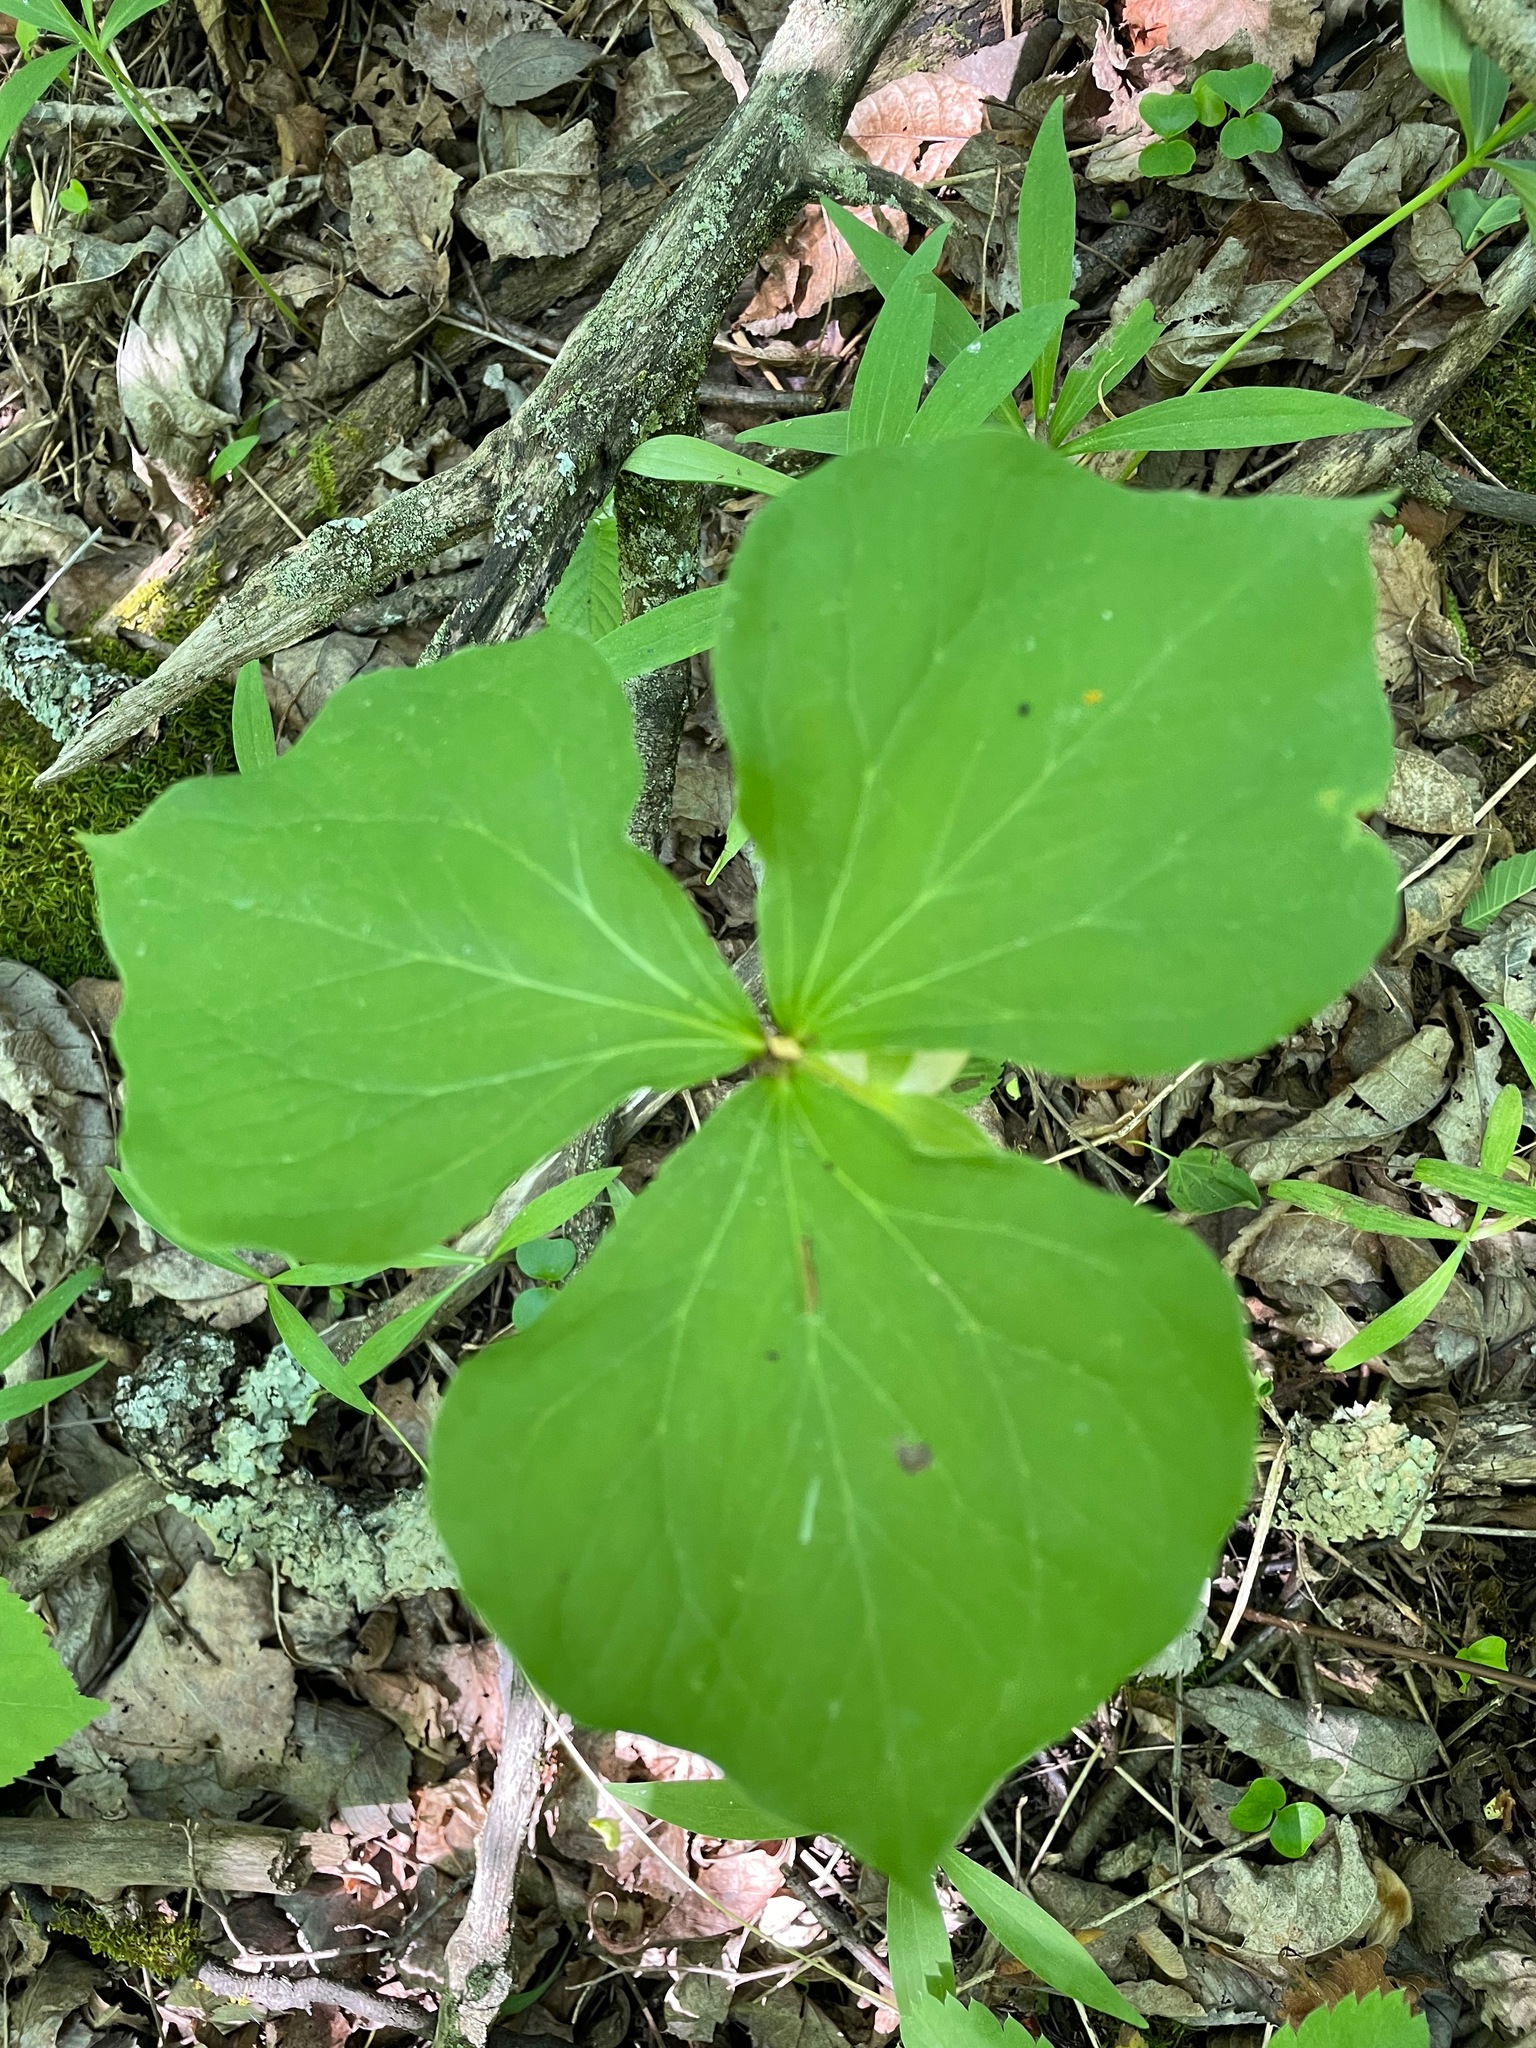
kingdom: Plantae
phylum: Tracheophyta
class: Liliopsida
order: Liliales
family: Melanthiaceae
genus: Trillium
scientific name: Trillium cernuum
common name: Nodding trillium
